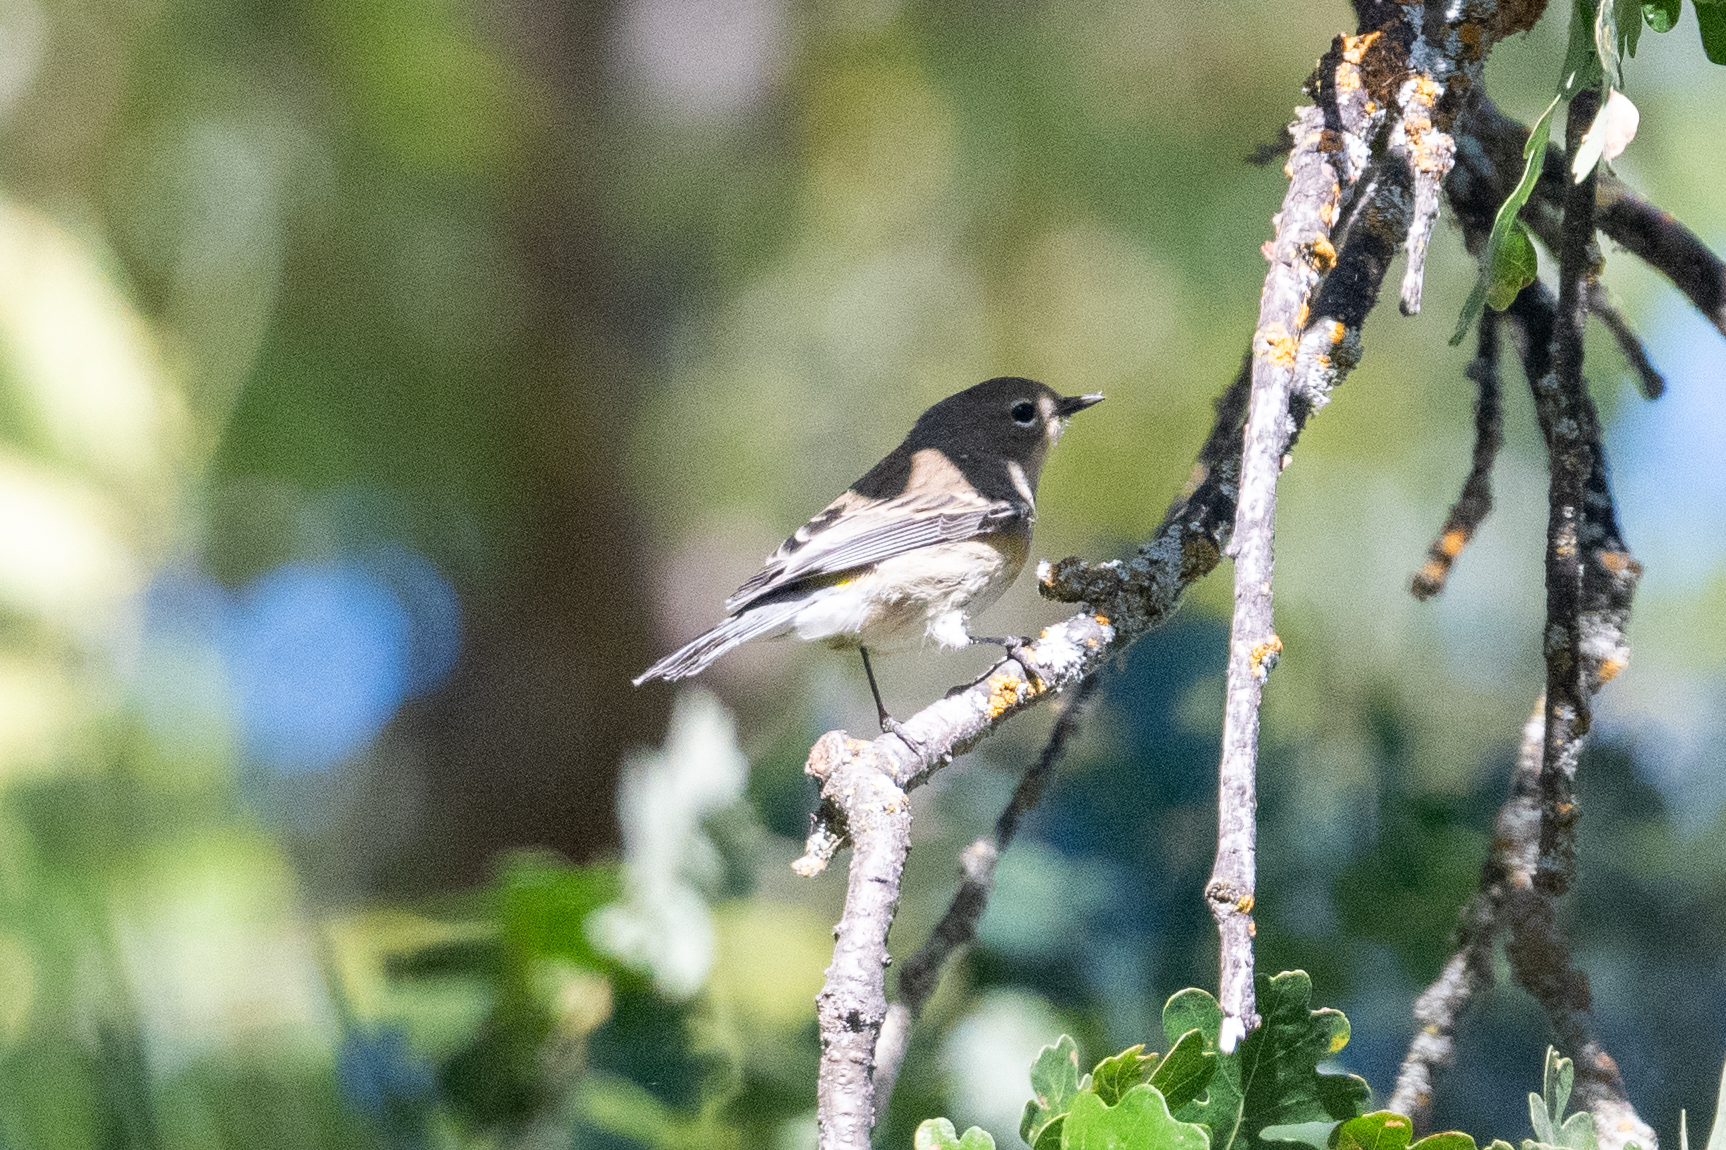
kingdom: Animalia
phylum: Chordata
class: Aves
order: Passeriformes
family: Parulidae
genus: Setophaga
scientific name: Setophaga coronata
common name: Myrtle warbler
